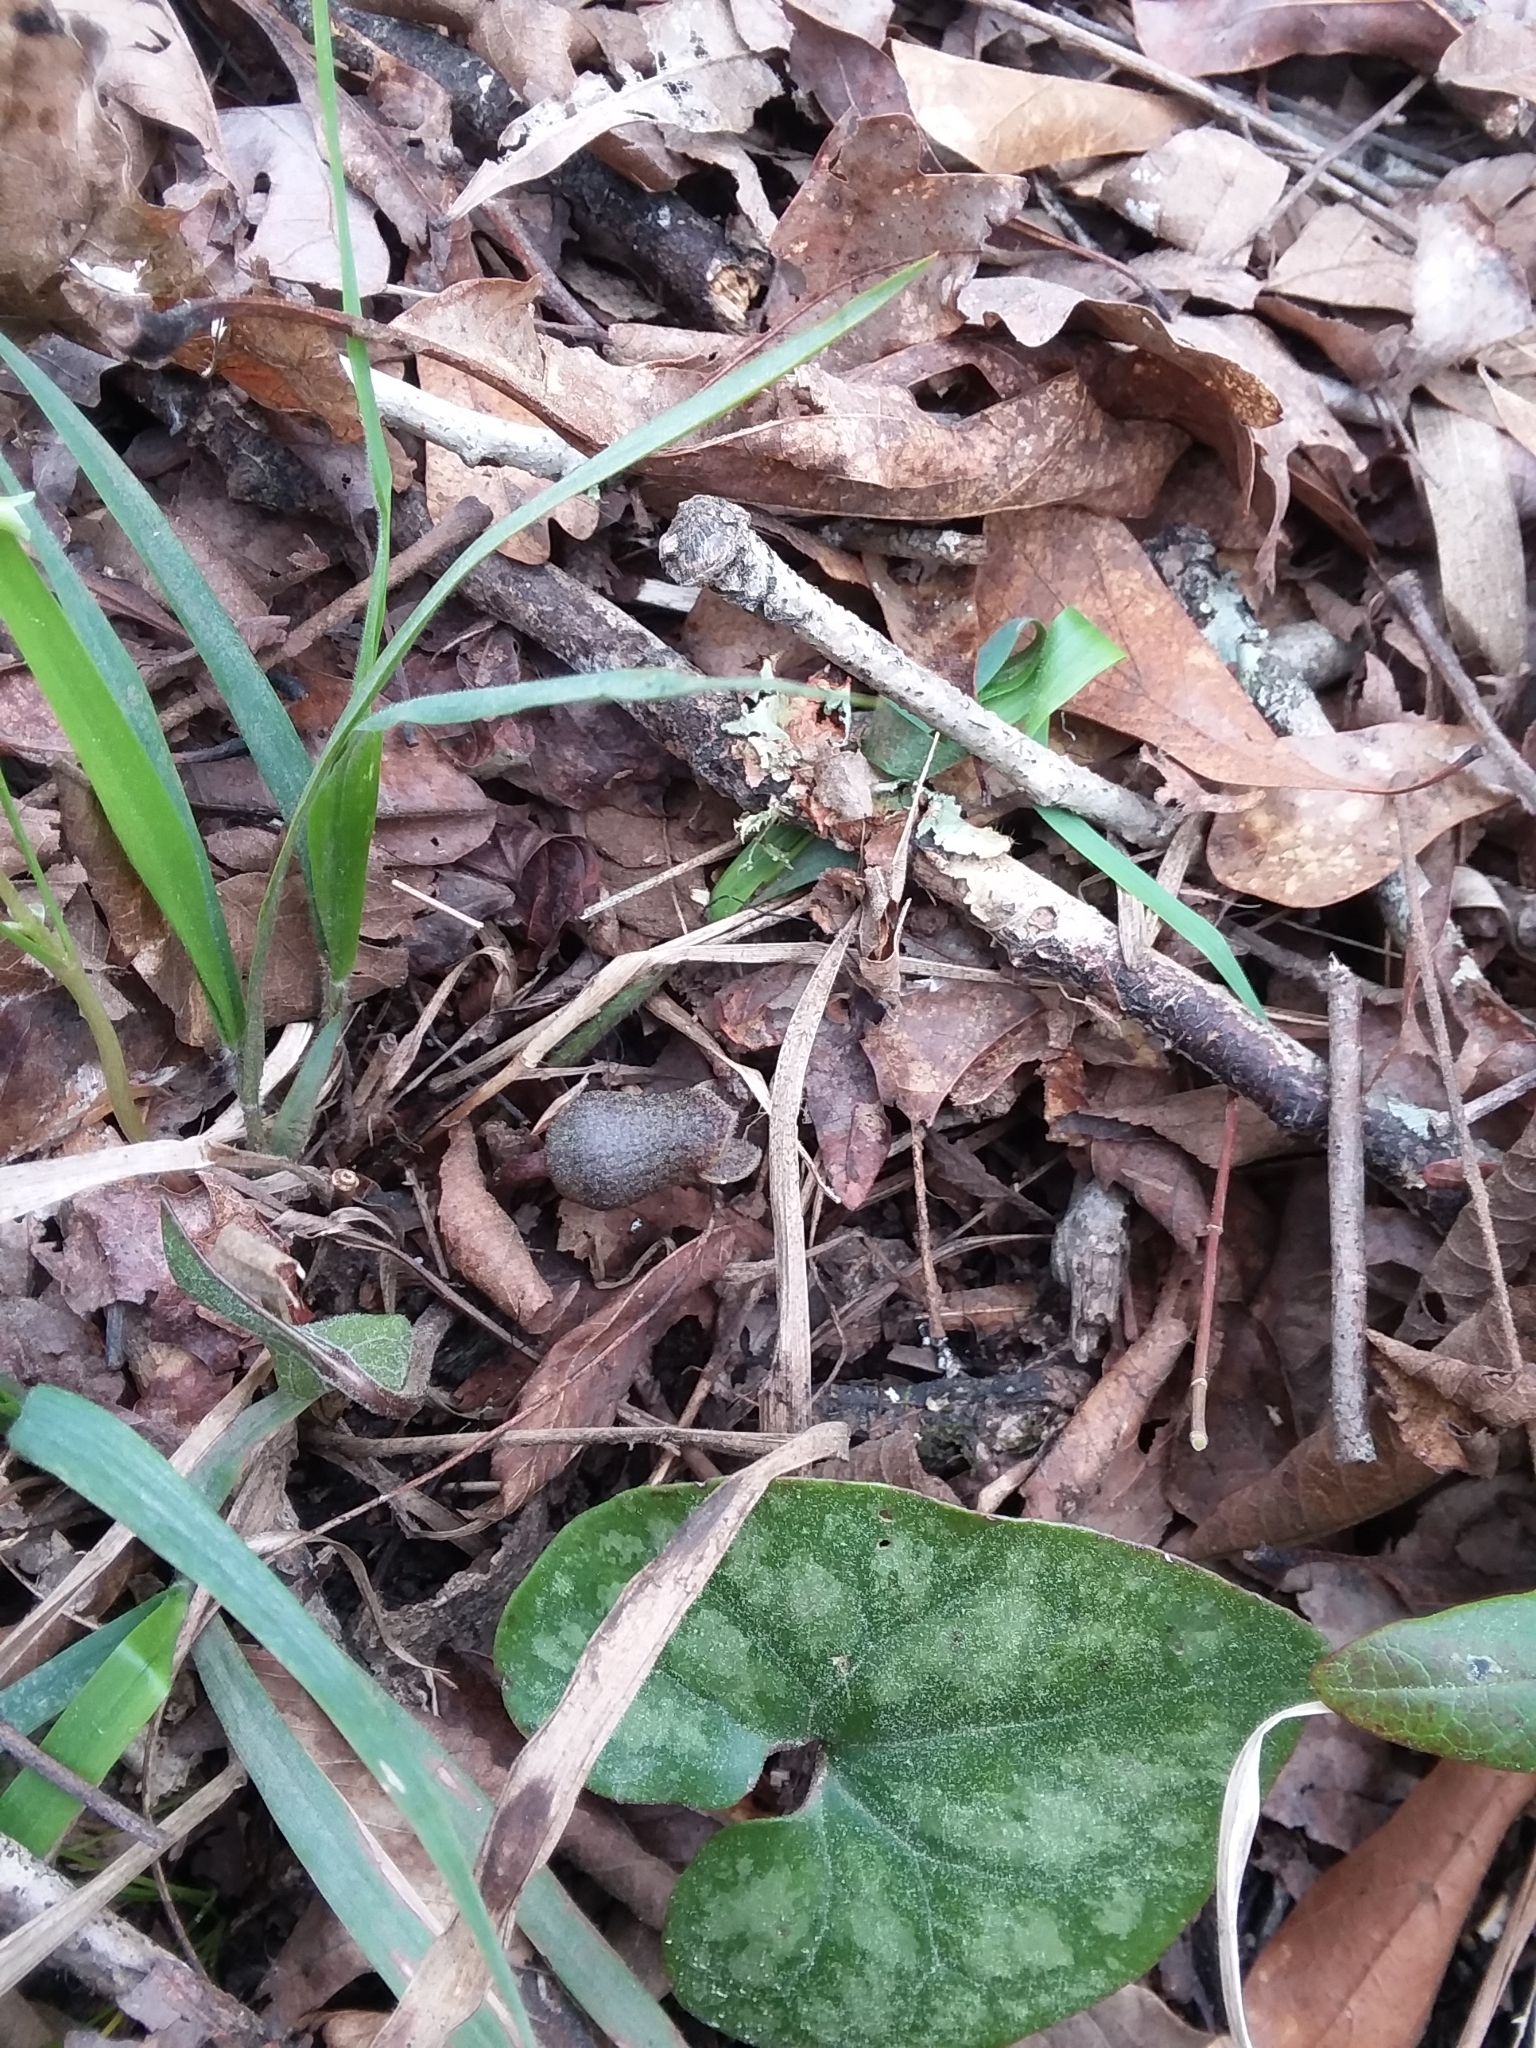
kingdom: Plantae
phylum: Tracheophyta
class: Magnoliopsida
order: Piperales
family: Aristolochiaceae
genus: Hexastylis
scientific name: Hexastylis arifolia
